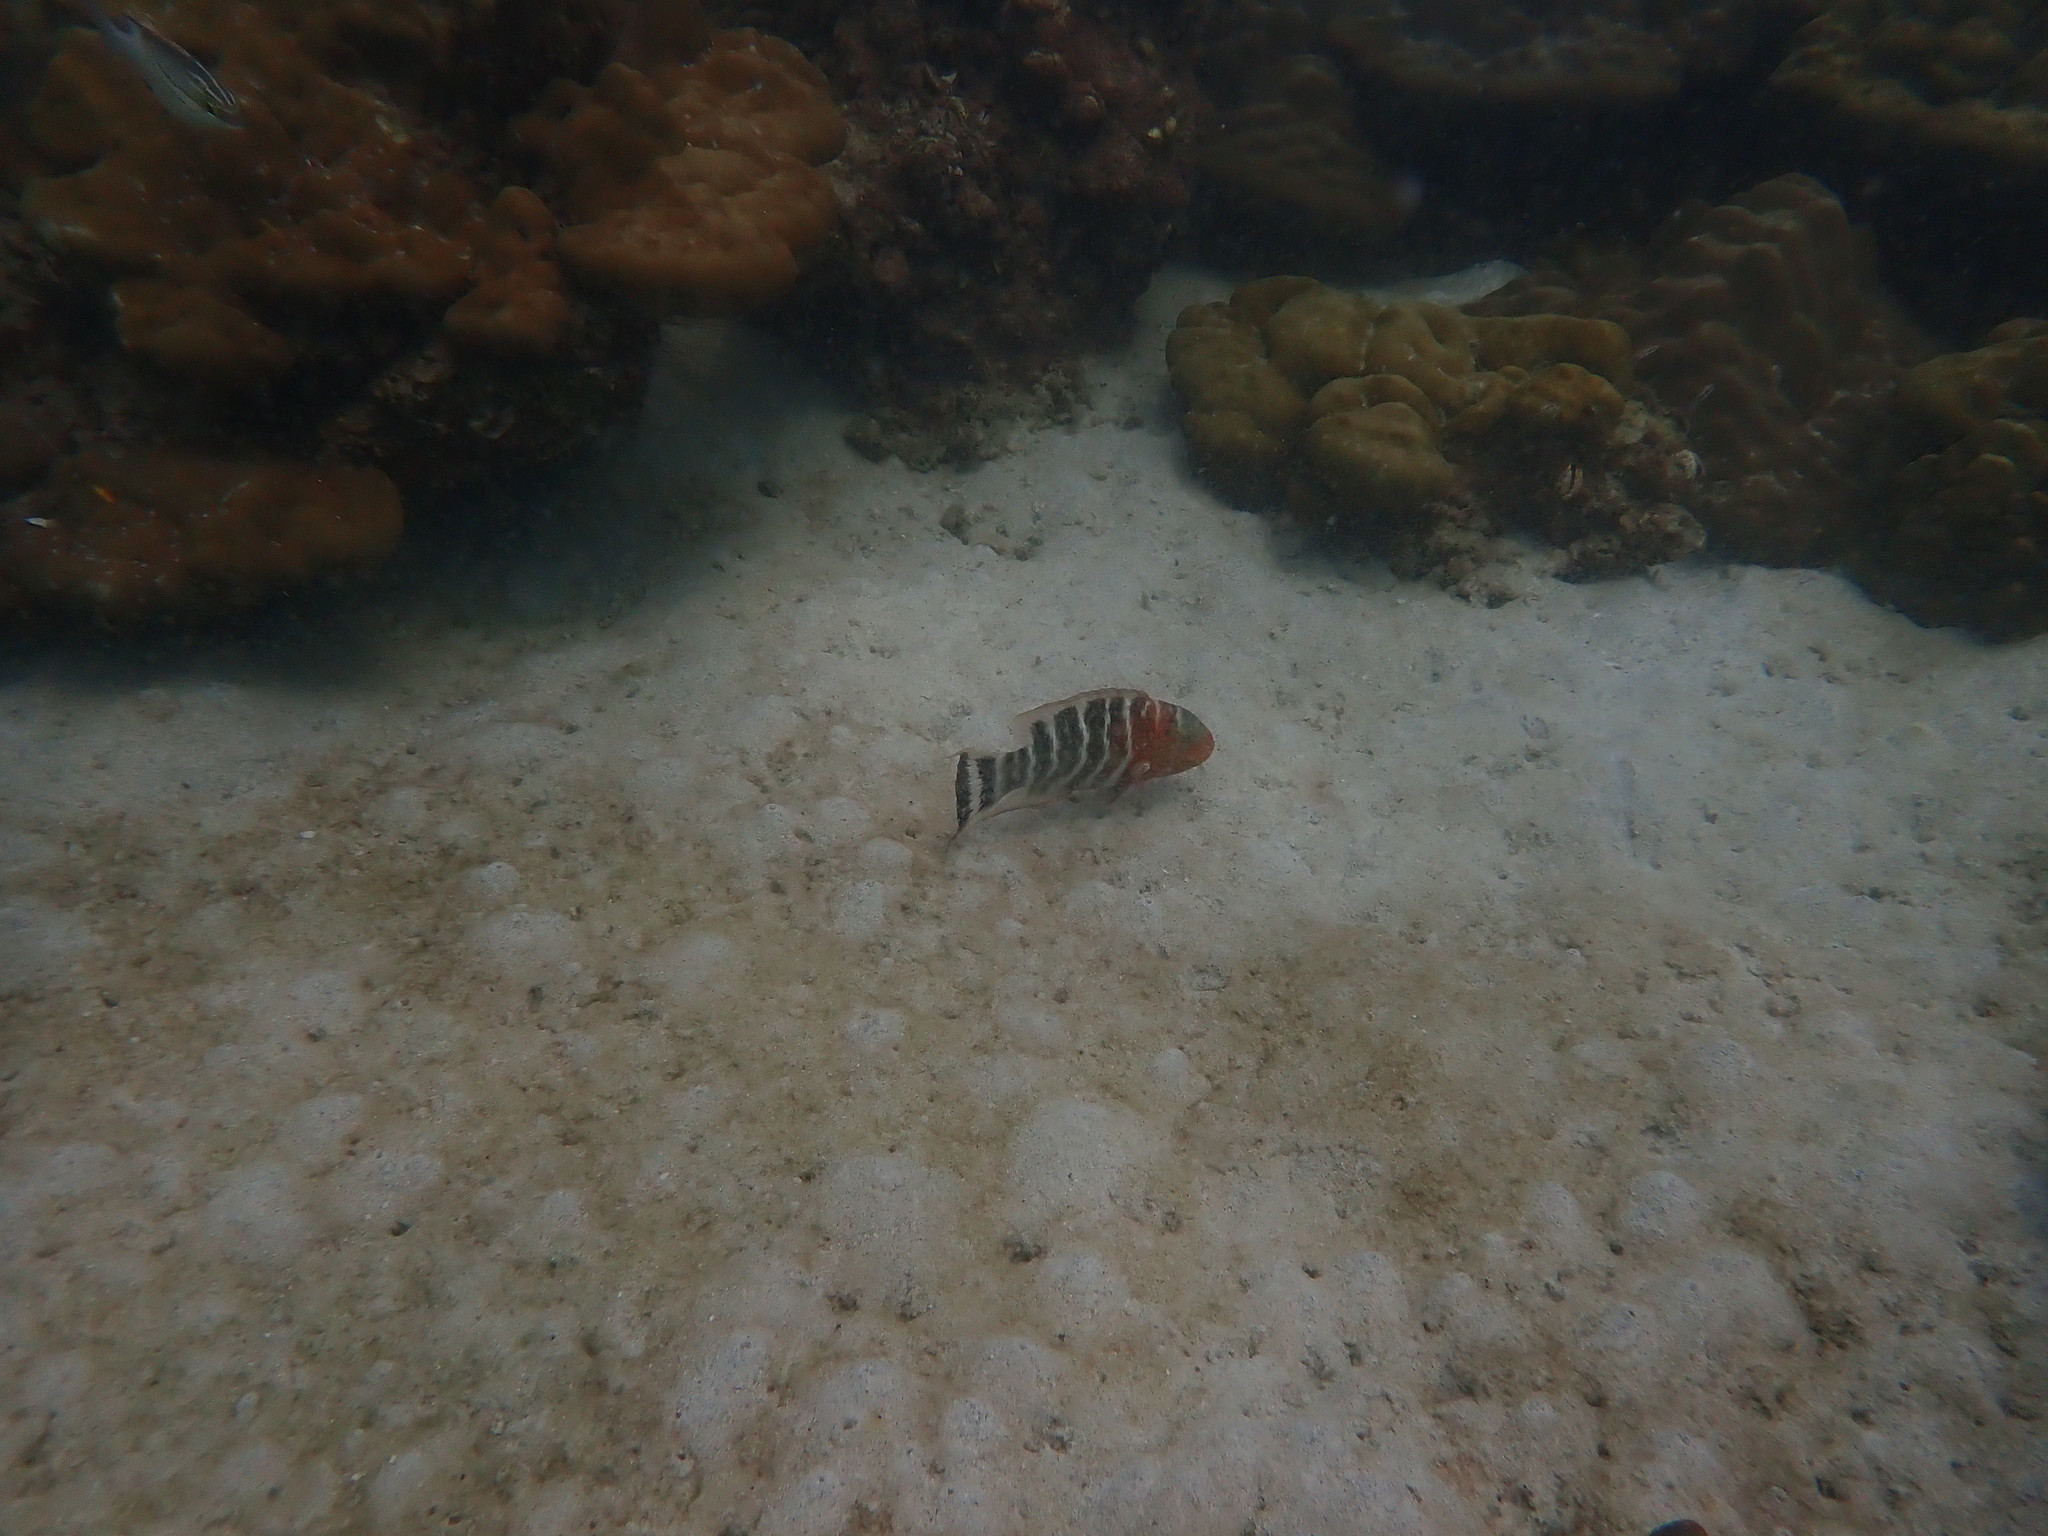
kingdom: Animalia
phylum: Chordata
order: Perciformes
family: Labridae
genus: Cheilinus
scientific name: Cheilinus fasciatus
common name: Red-breasted wrasse
